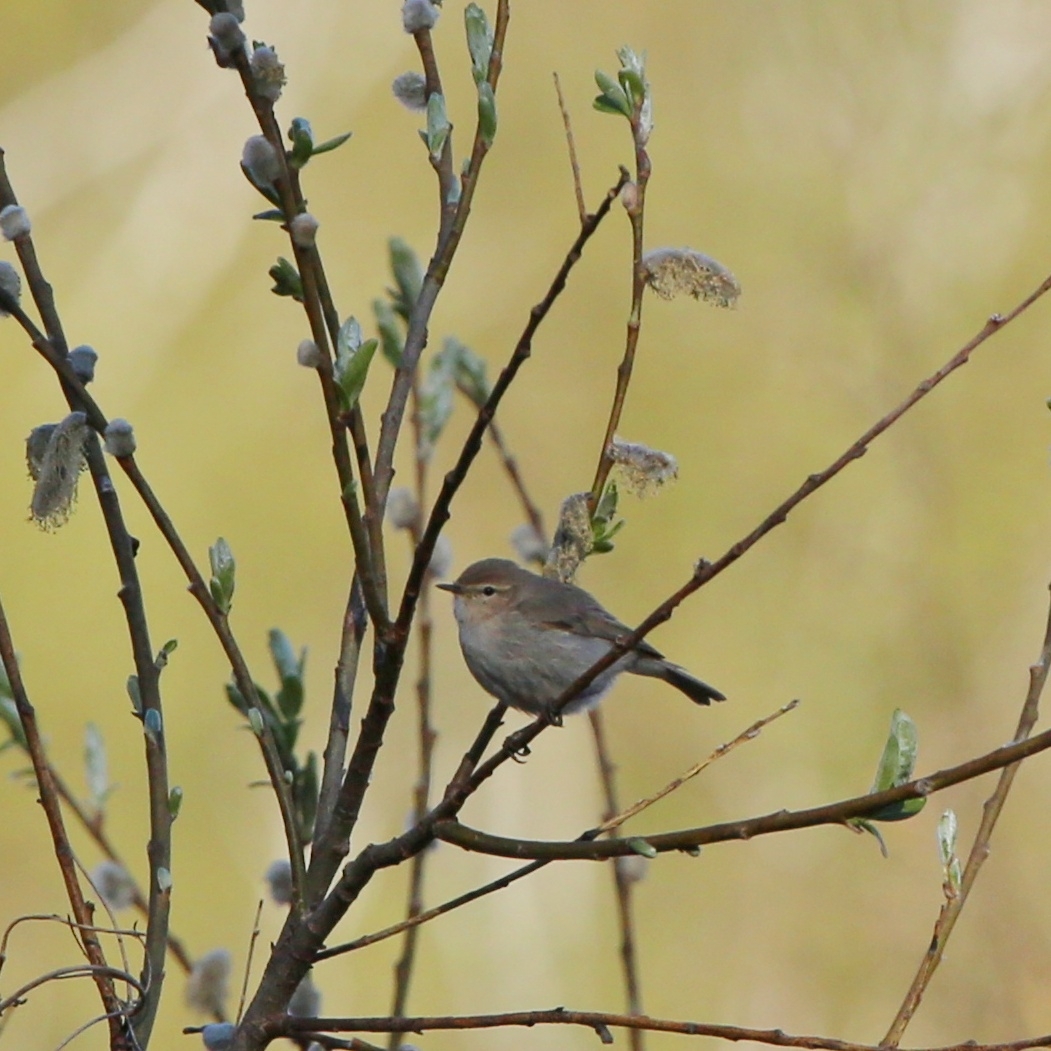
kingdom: Animalia
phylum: Chordata
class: Aves
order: Passeriformes
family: Phylloscopidae
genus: Phylloscopus
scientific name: Phylloscopus collybita
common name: Common chiffchaff
